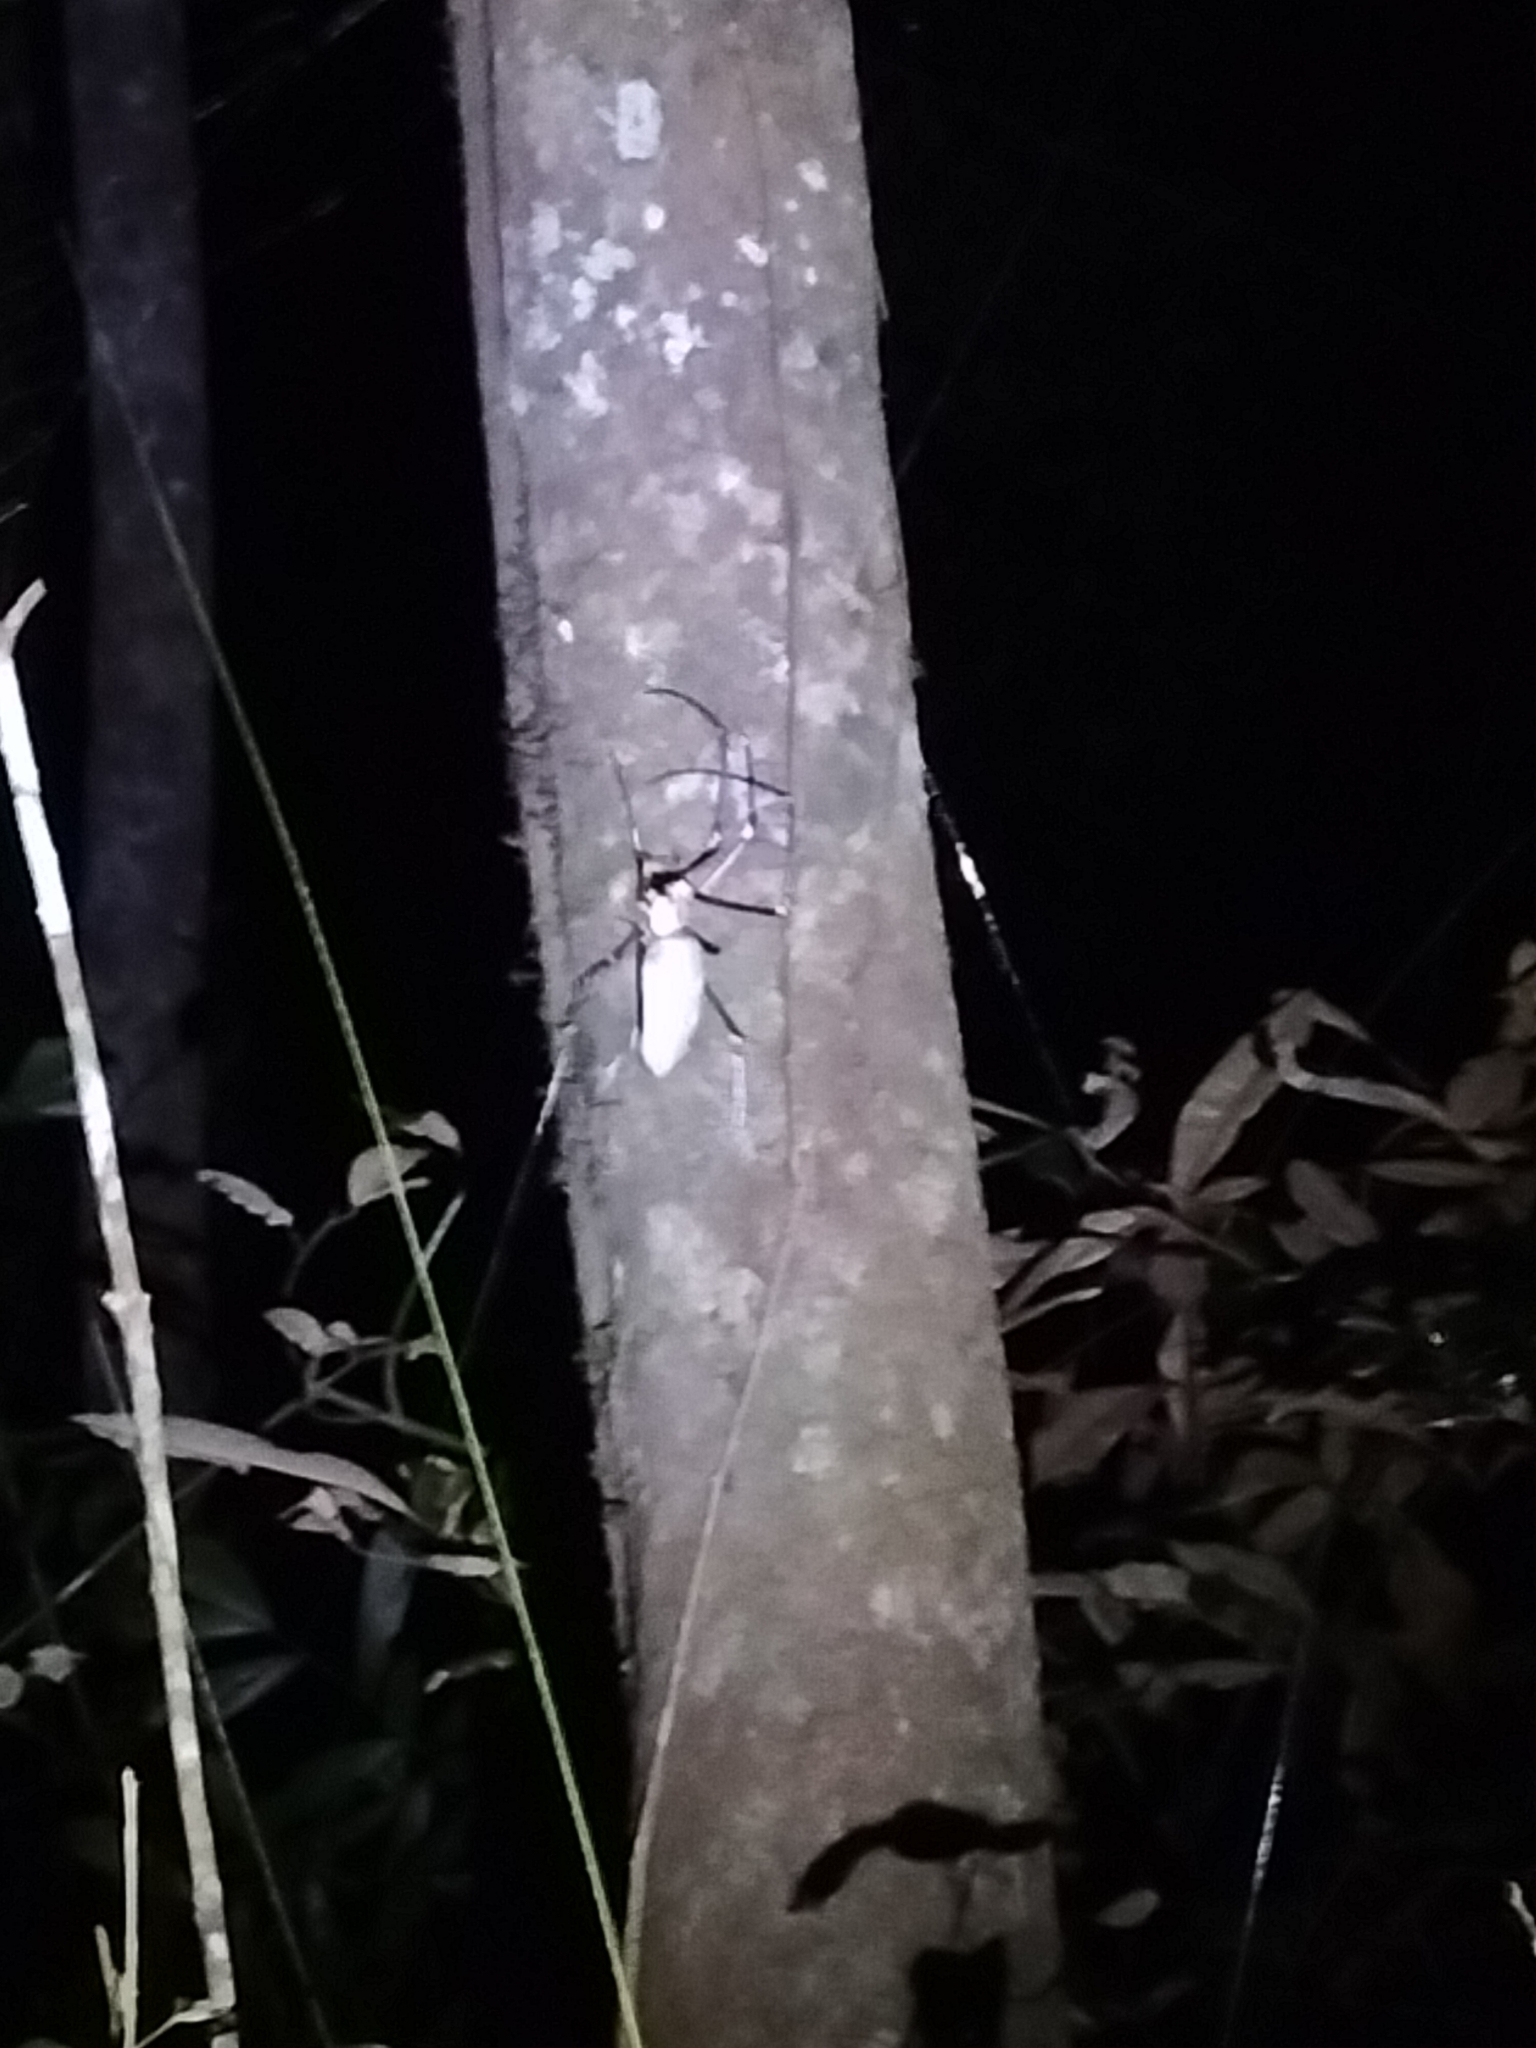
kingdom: Animalia
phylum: Arthropoda
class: Arachnida
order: Araneae
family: Araneidae
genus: Nephila
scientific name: Nephila pilipes
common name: Giant golden orb weaver
